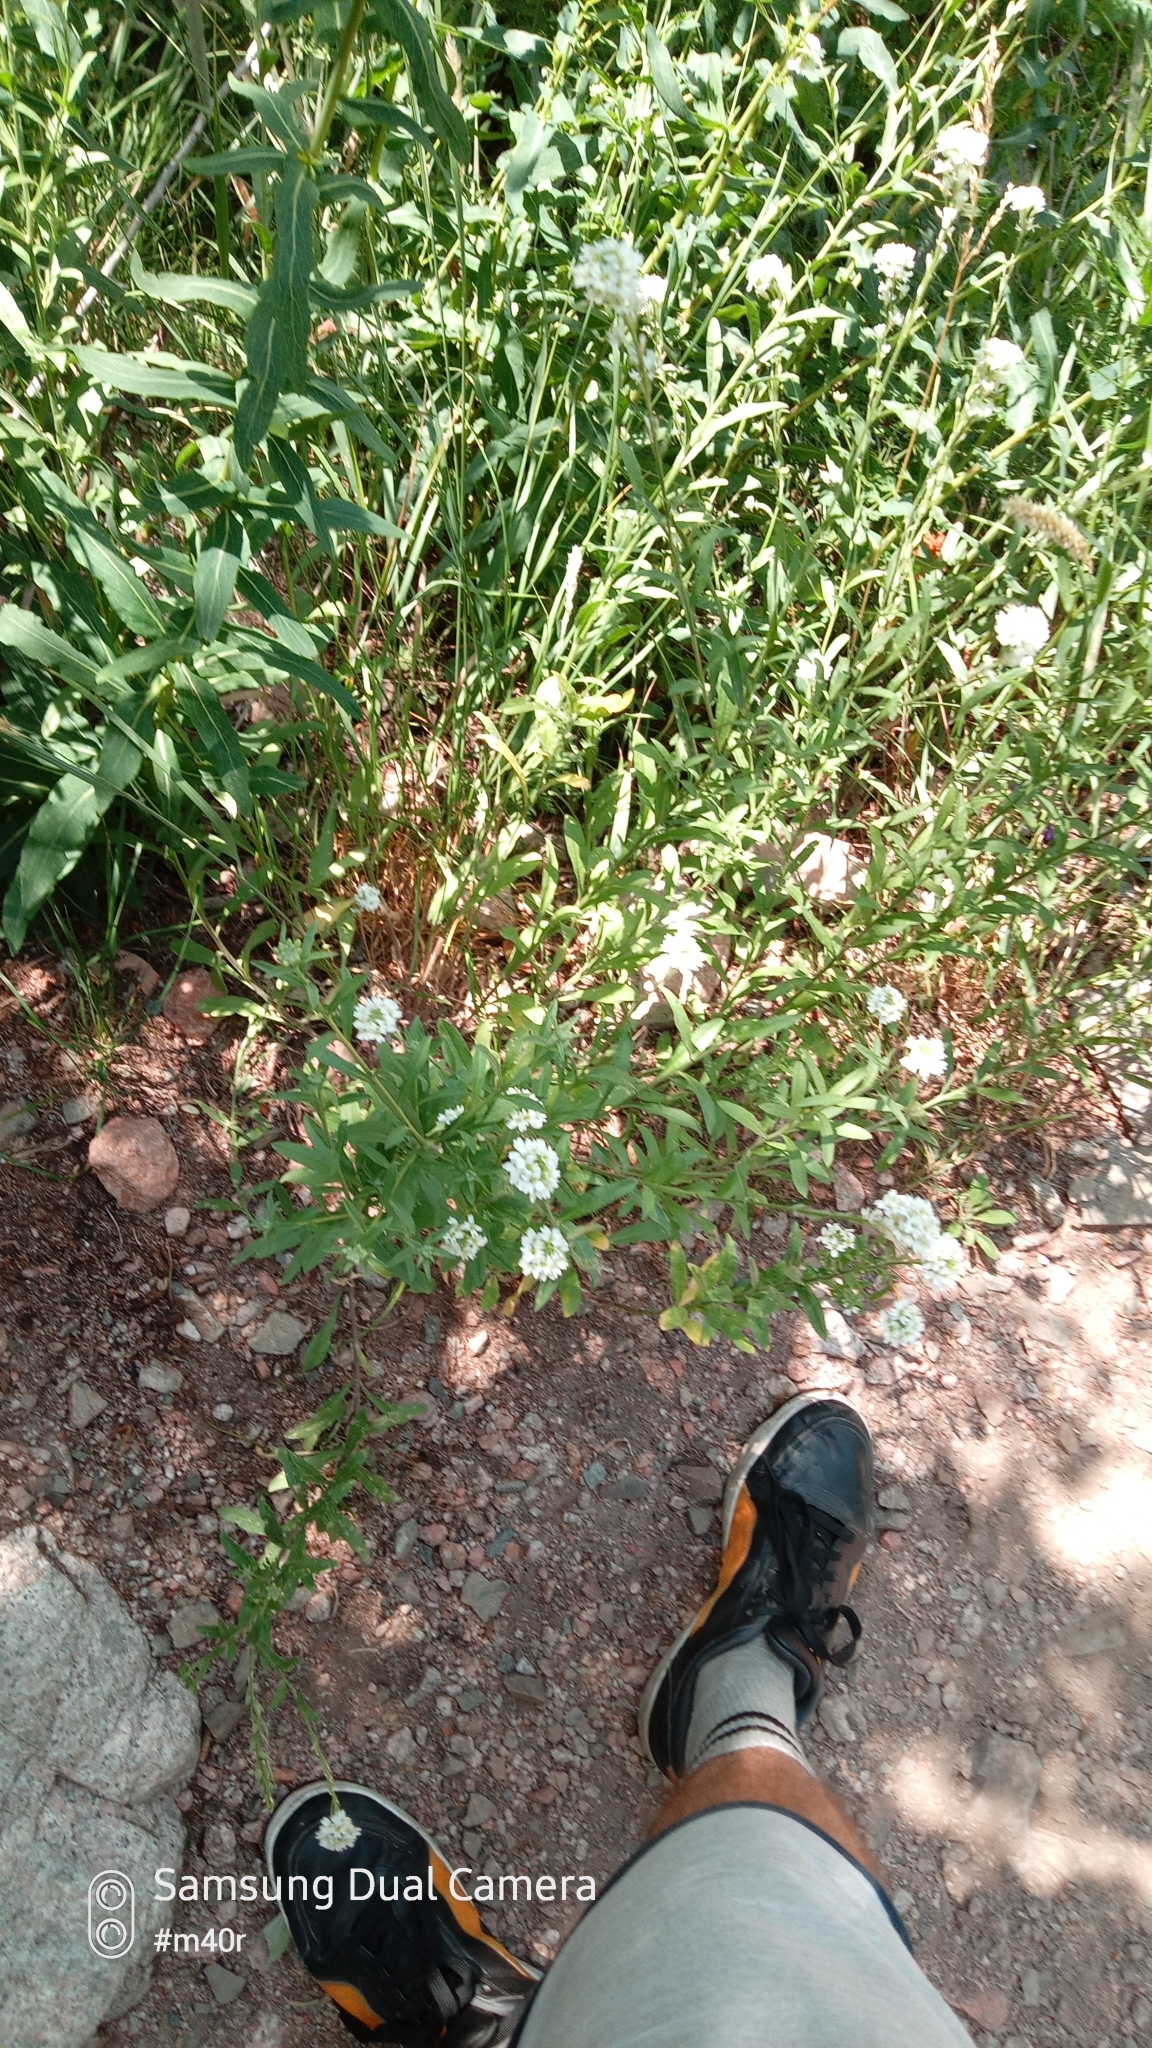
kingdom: Plantae
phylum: Tracheophyta
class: Magnoliopsida
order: Brassicales
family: Brassicaceae
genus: Berteroa
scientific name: Berteroa incana
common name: Hoary alison
